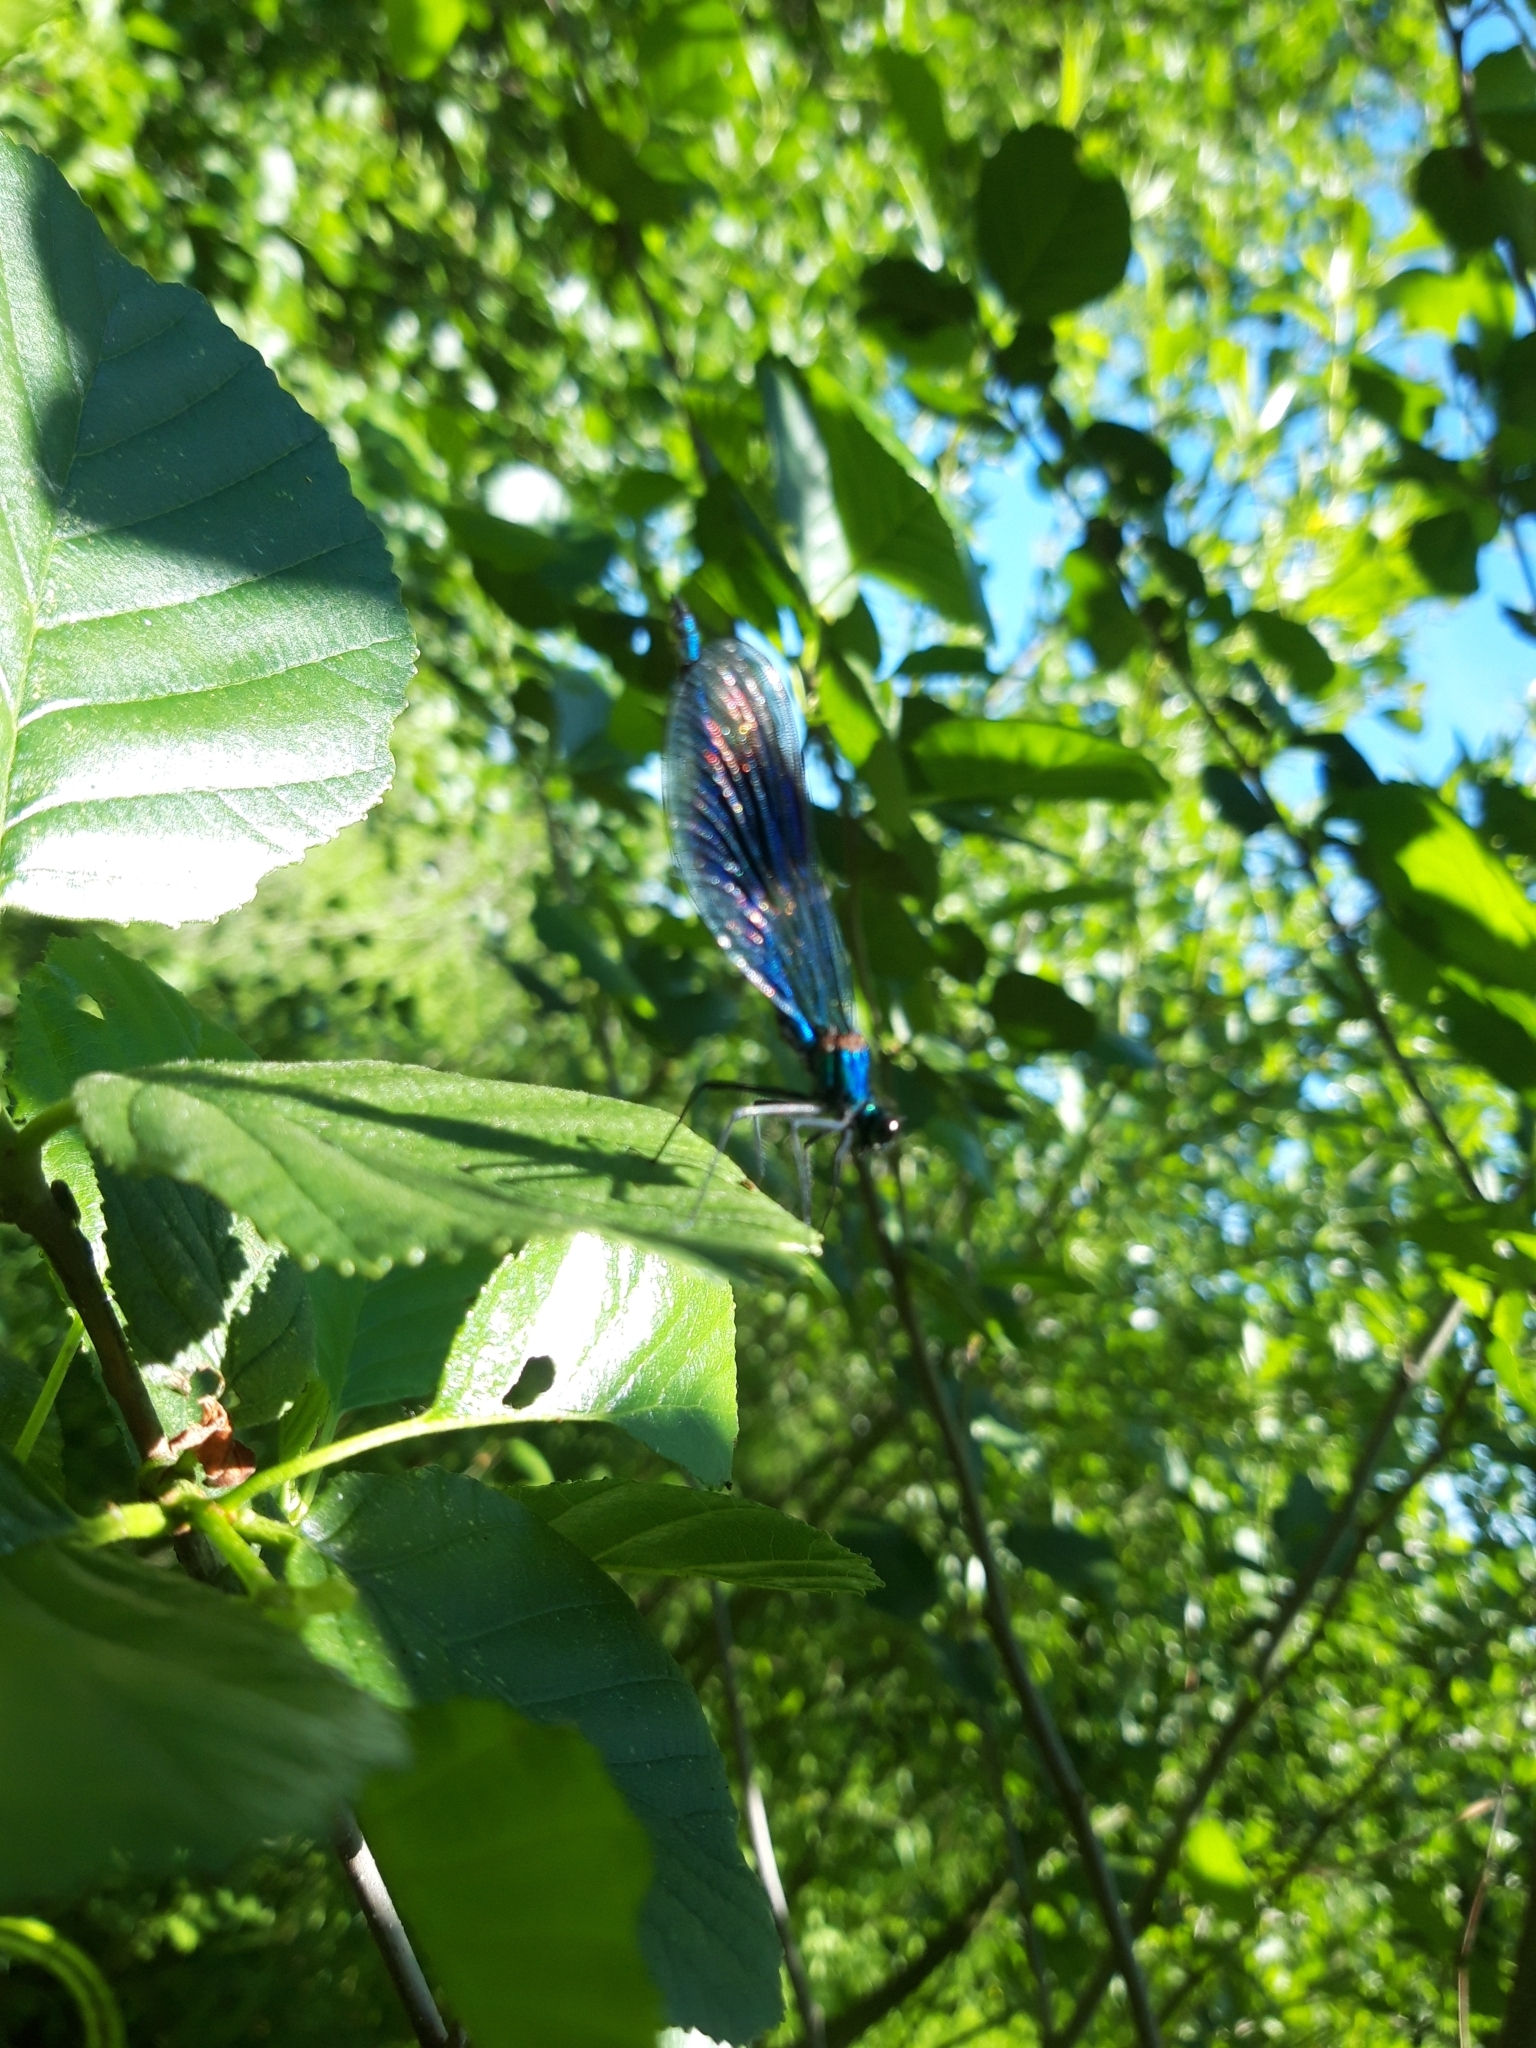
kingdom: Animalia
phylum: Arthropoda
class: Insecta
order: Odonata
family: Calopterygidae
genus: Calopteryx
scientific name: Calopteryx splendens
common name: Banded demoiselle
